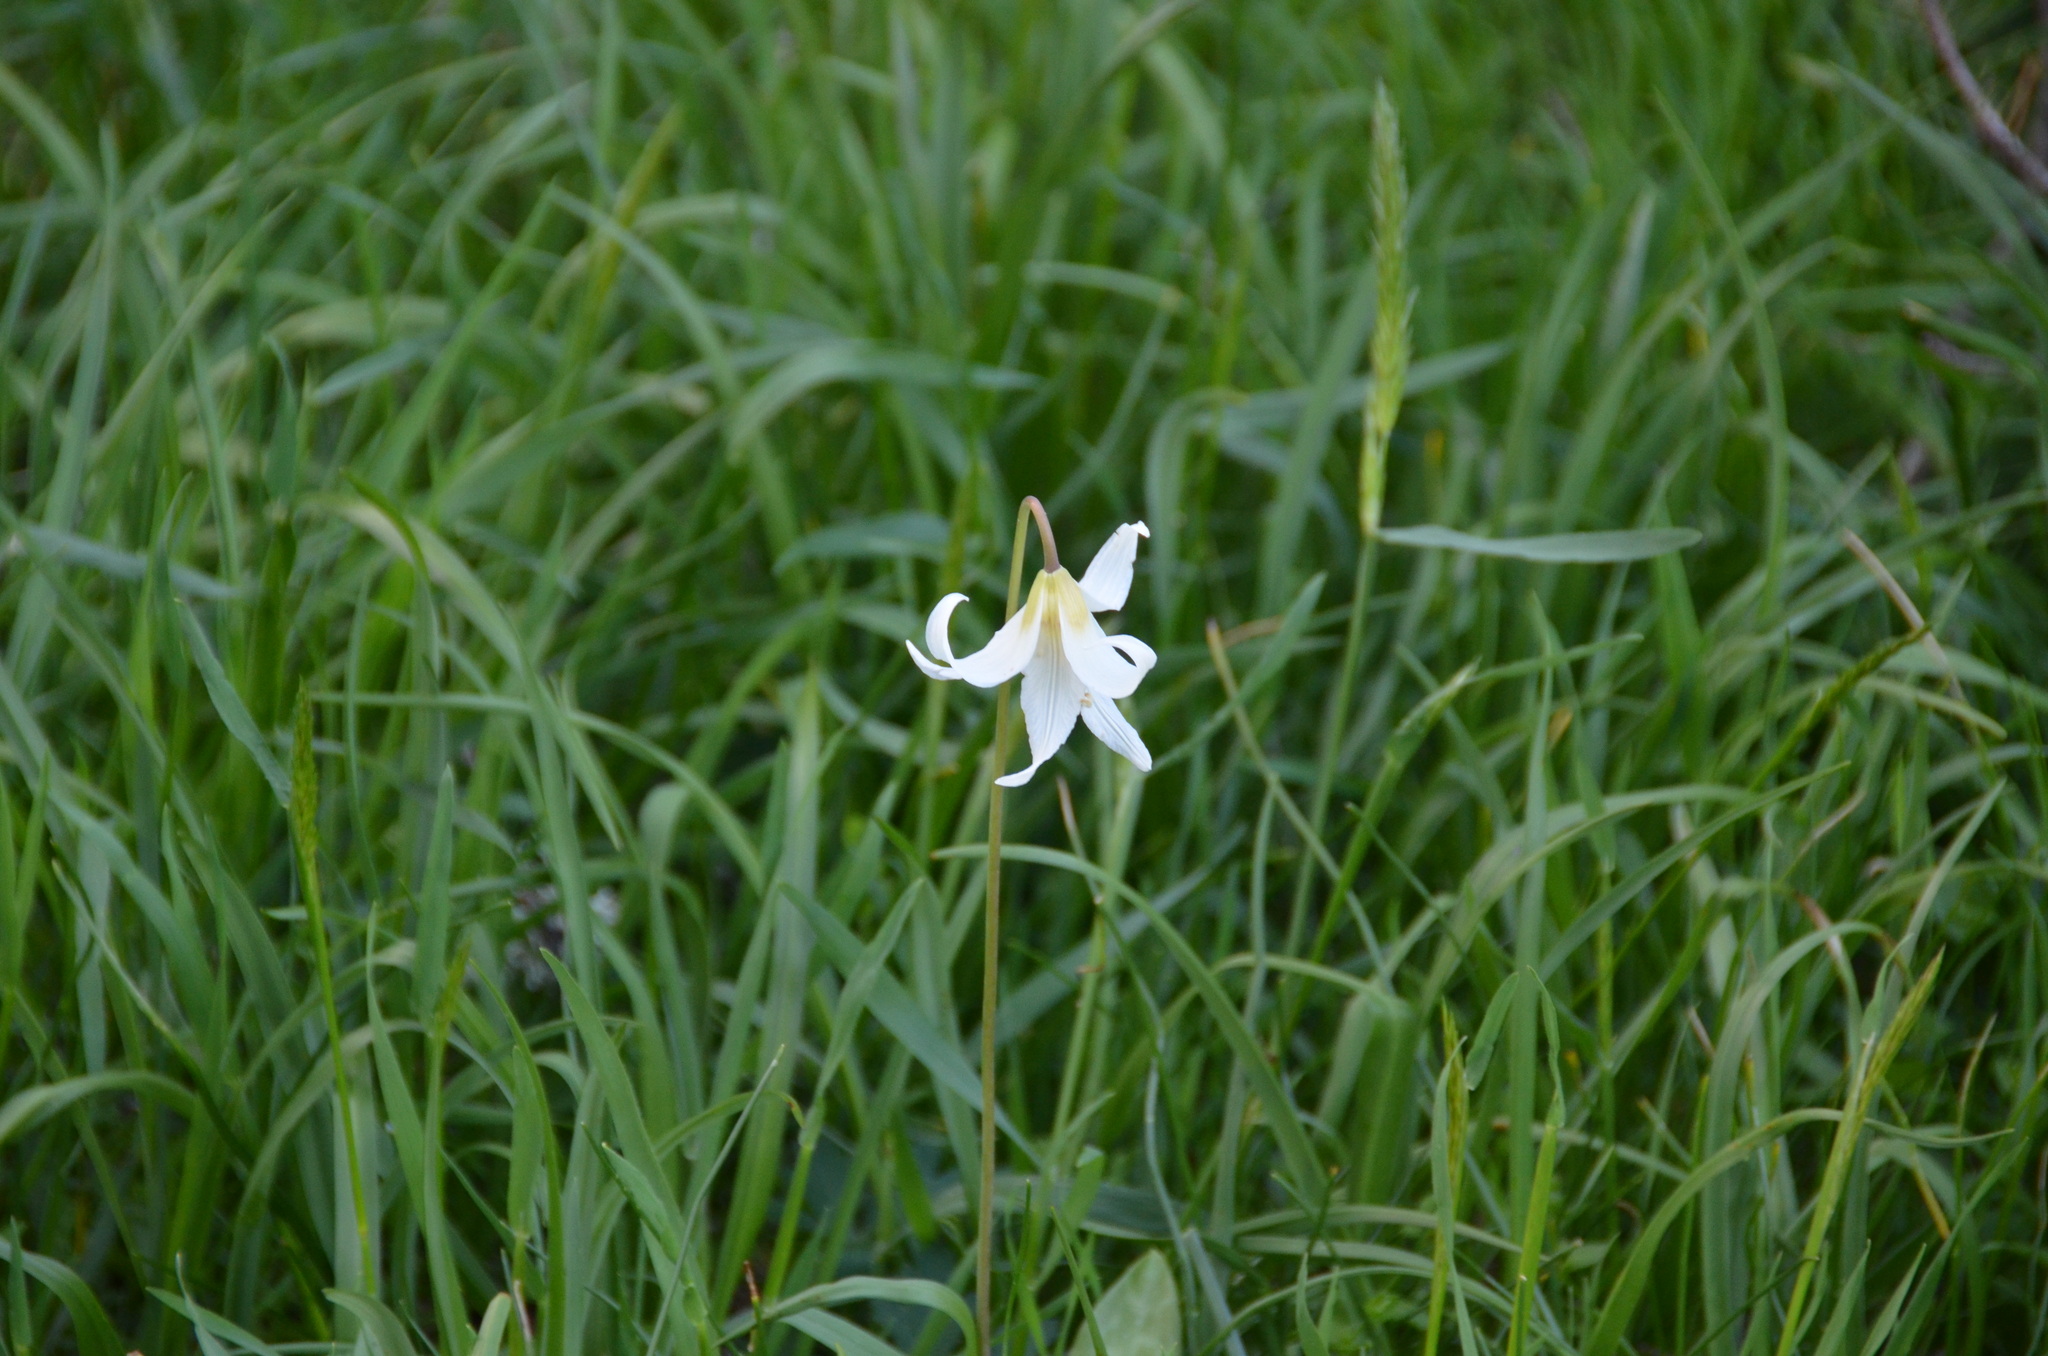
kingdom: Plantae
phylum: Tracheophyta
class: Liliopsida
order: Liliales
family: Liliaceae
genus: Erythronium
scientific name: Erythronium oregonum
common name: Giant adder's-tongue
